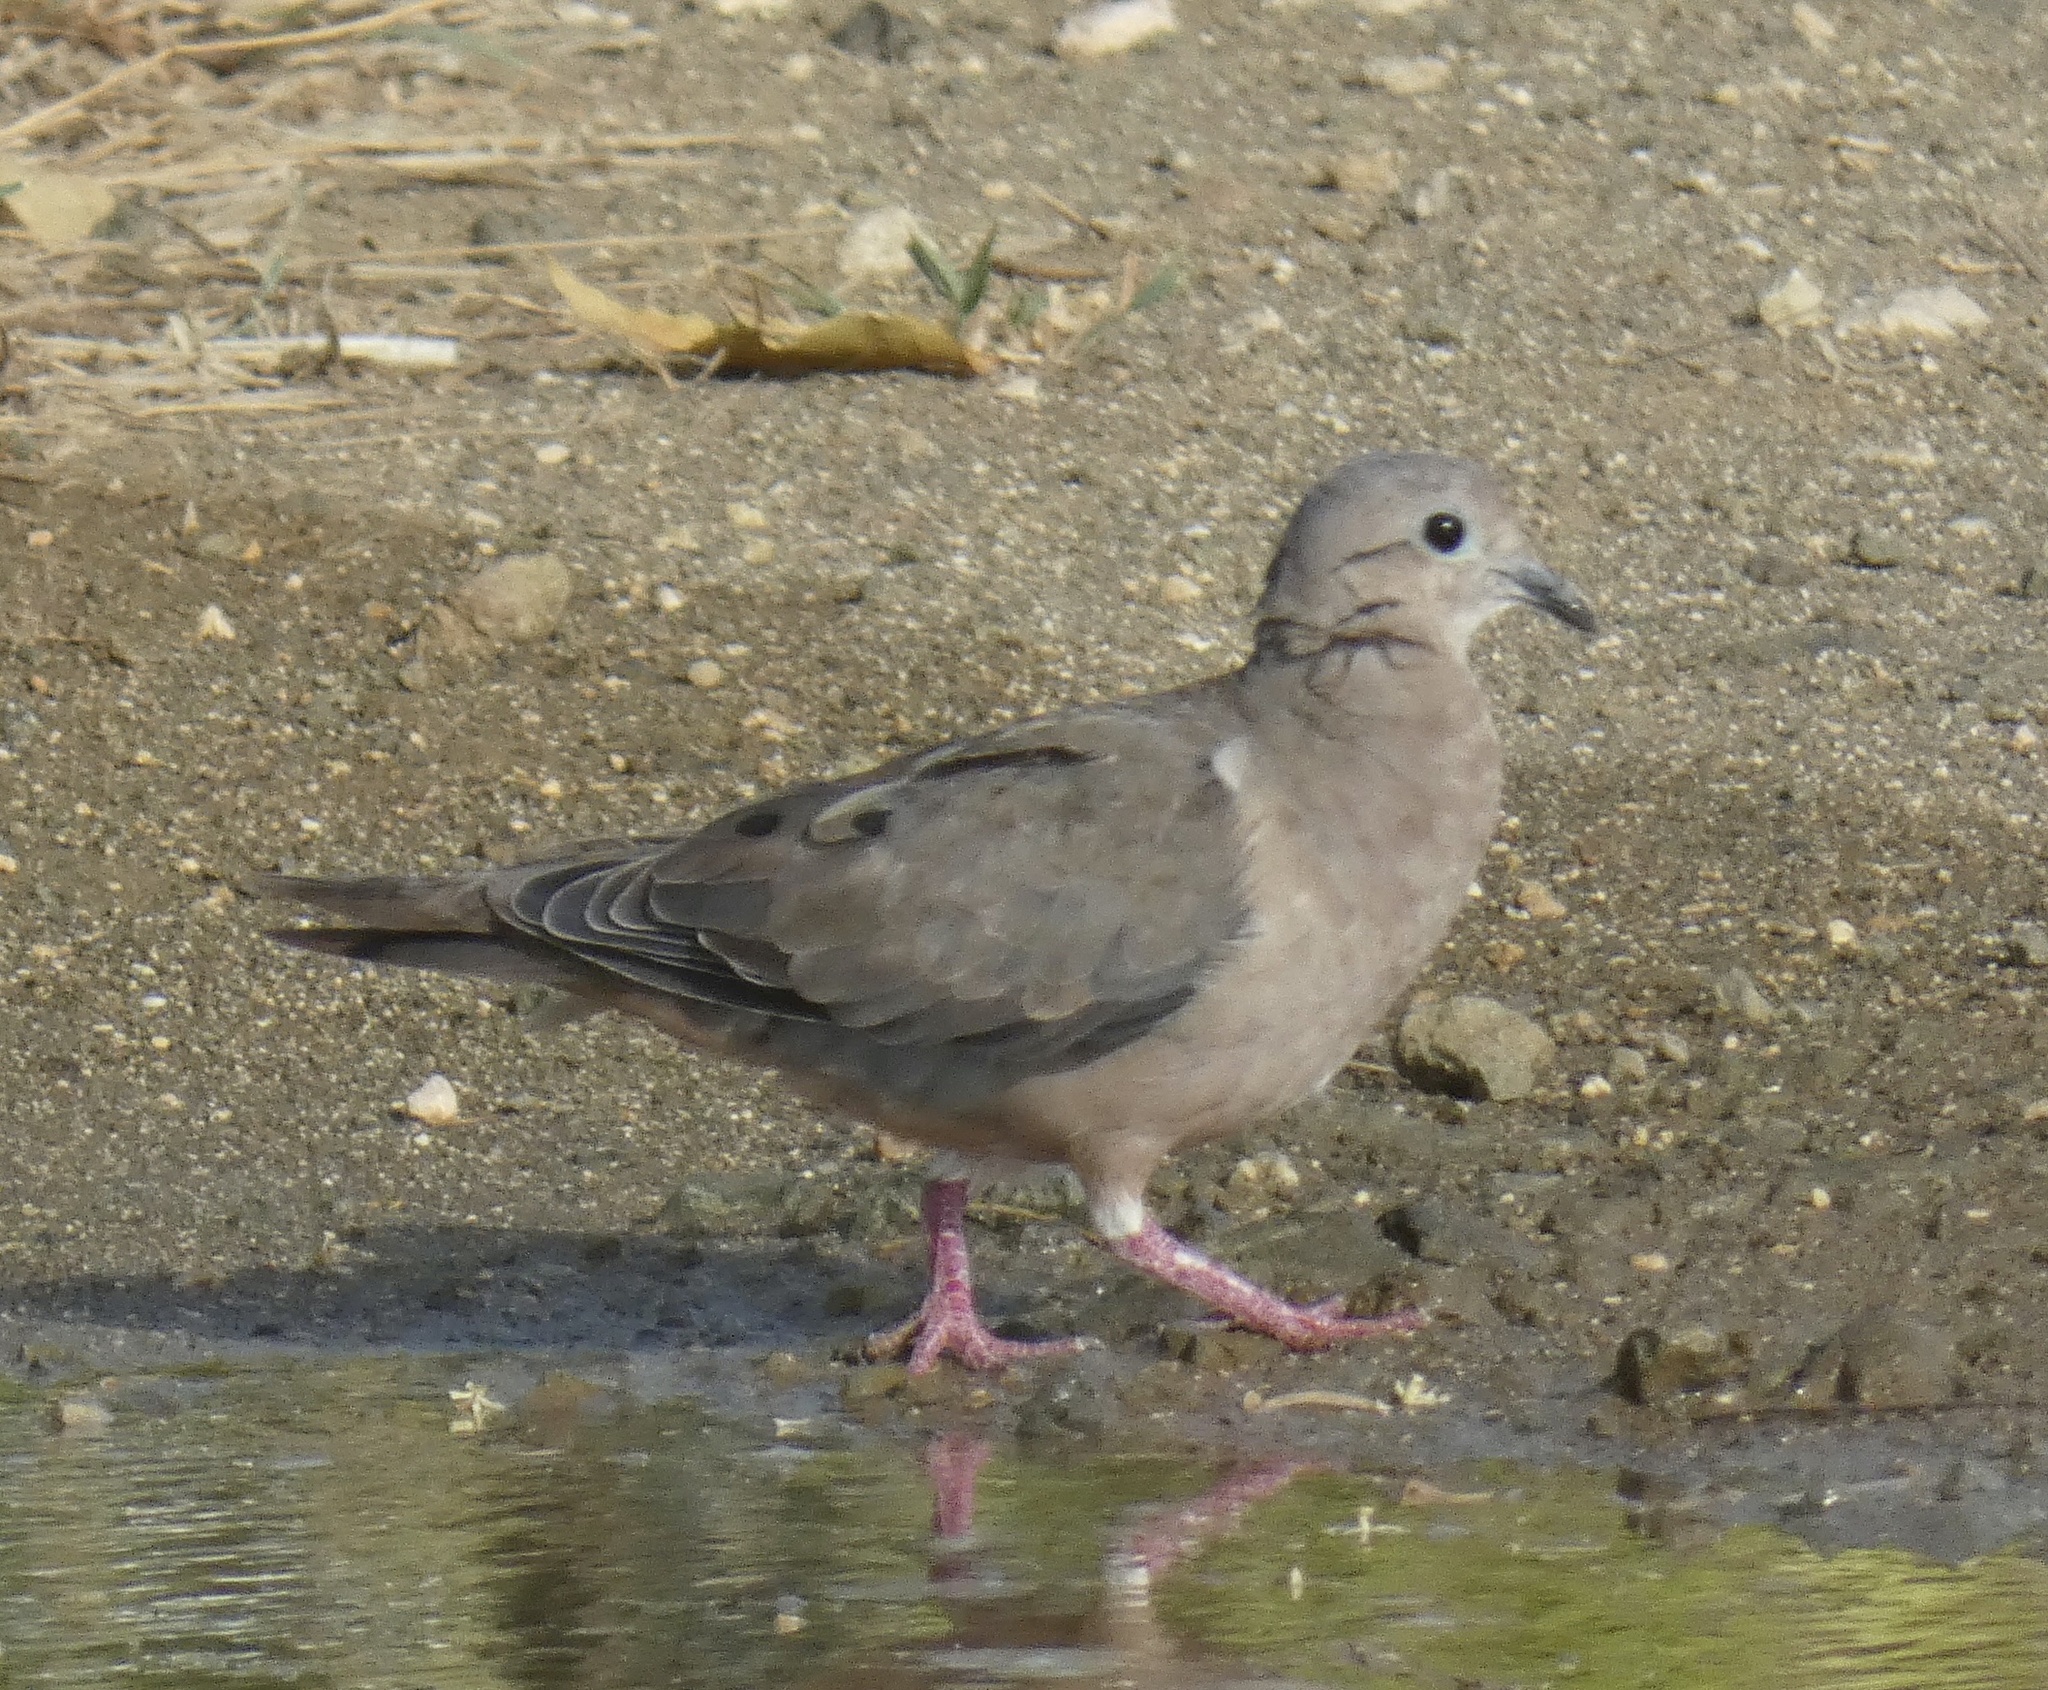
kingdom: Animalia
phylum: Chordata
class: Aves
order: Columbiformes
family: Columbidae
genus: Zenaida
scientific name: Zenaida auriculata
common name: Eared dove
